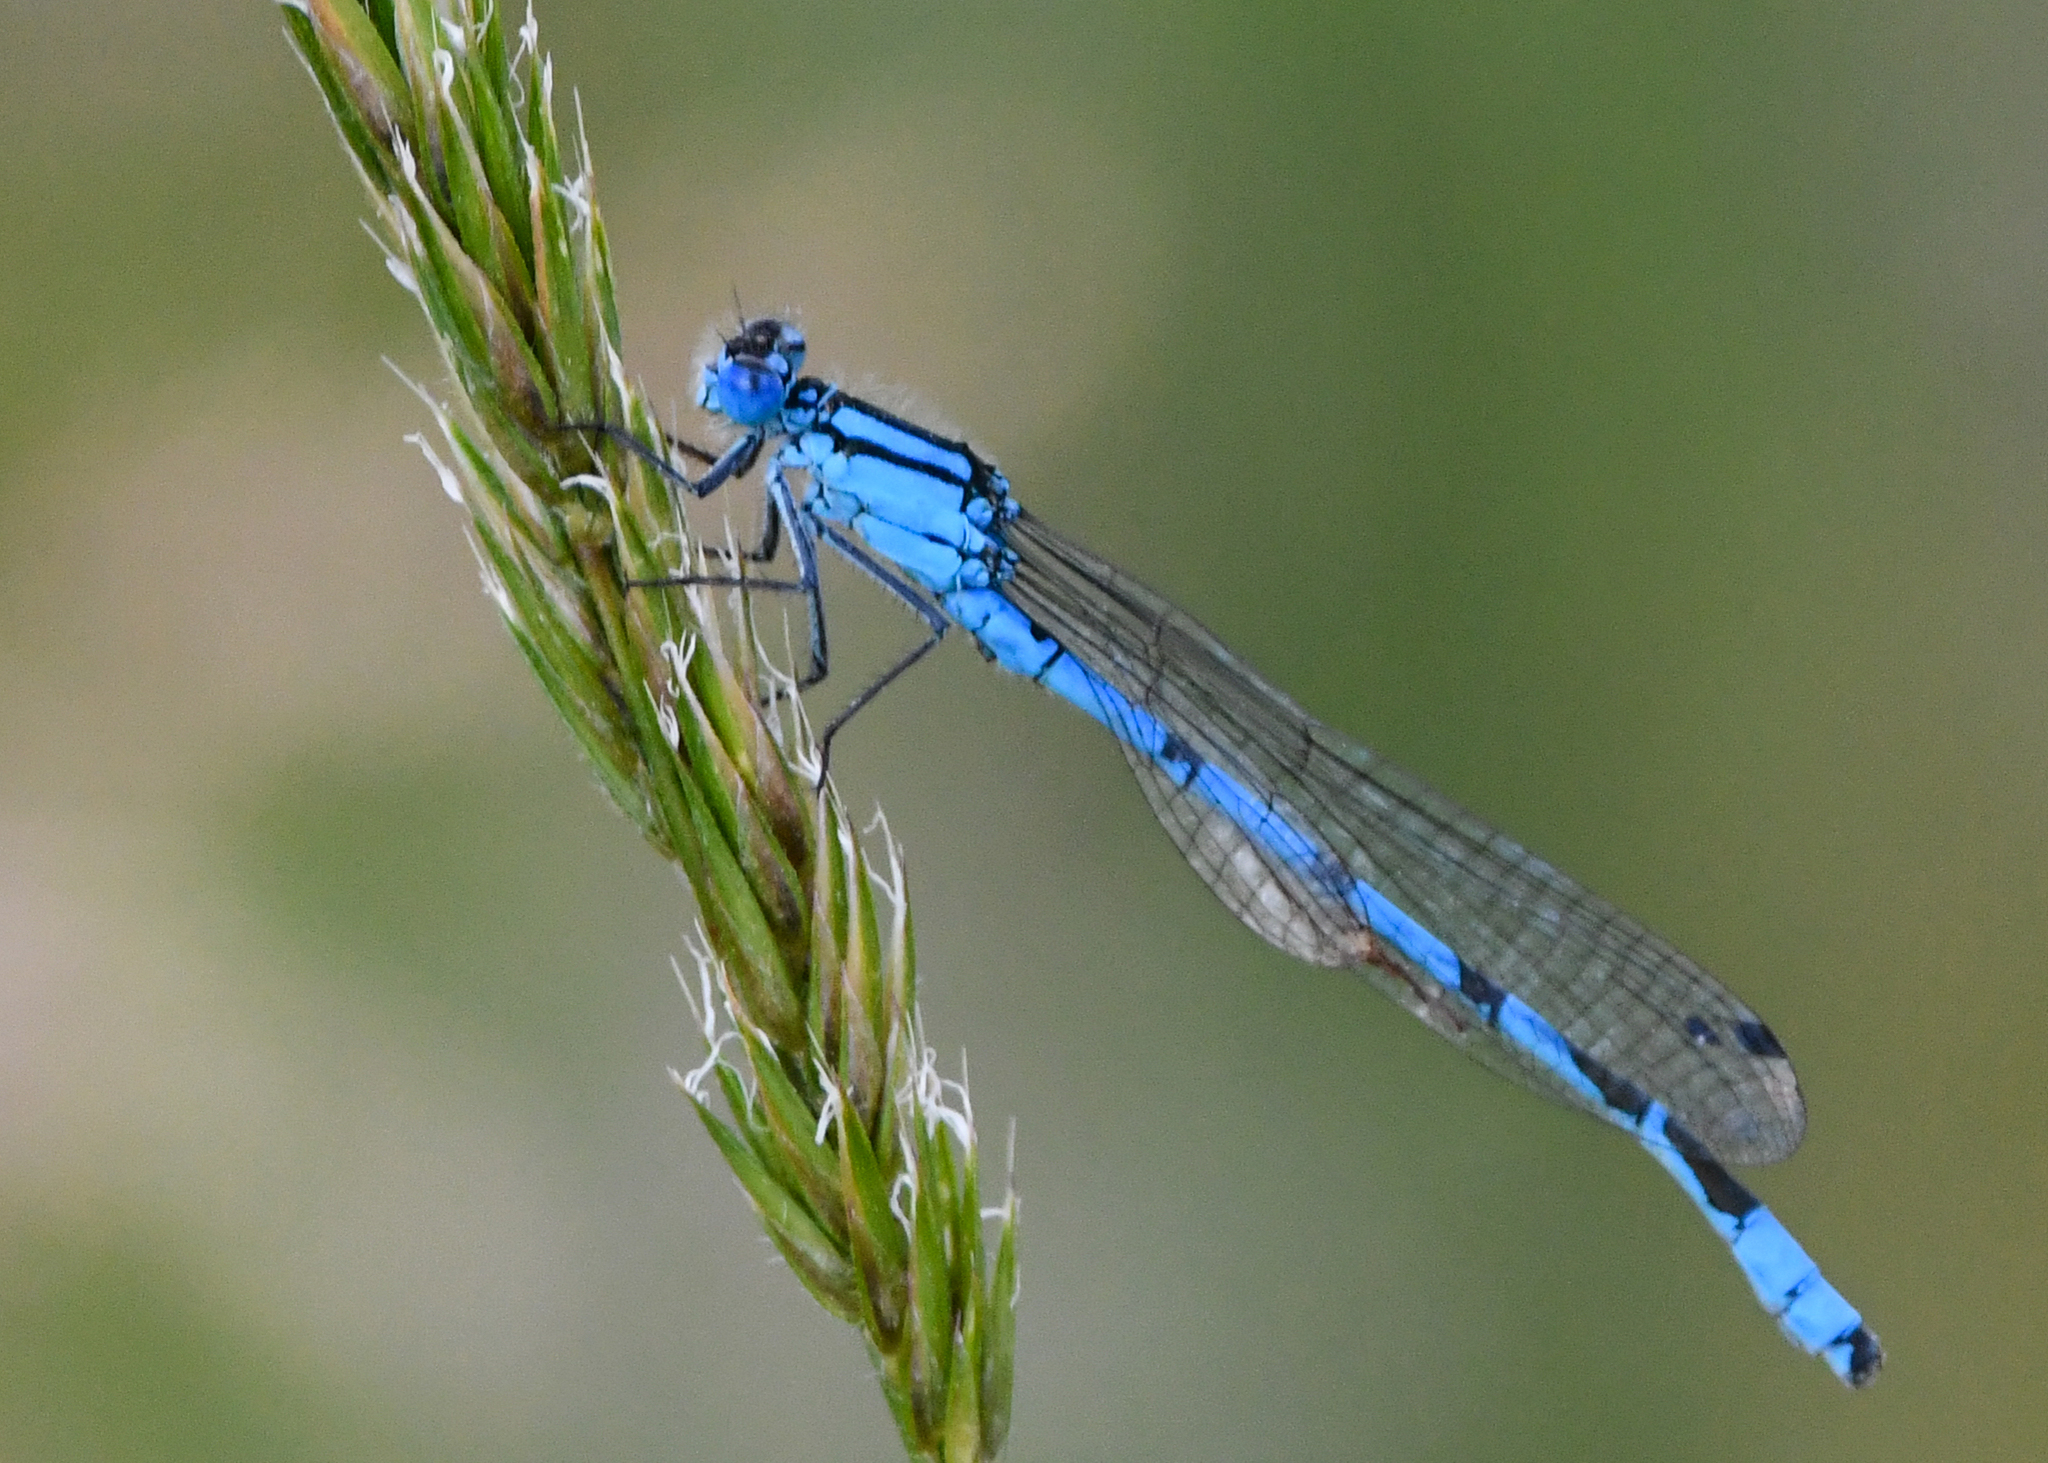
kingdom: Animalia
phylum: Arthropoda
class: Insecta
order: Odonata
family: Coenagrionidae
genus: Enallagma
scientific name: Enallagma cyathigerum
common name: Common blue damselfly
